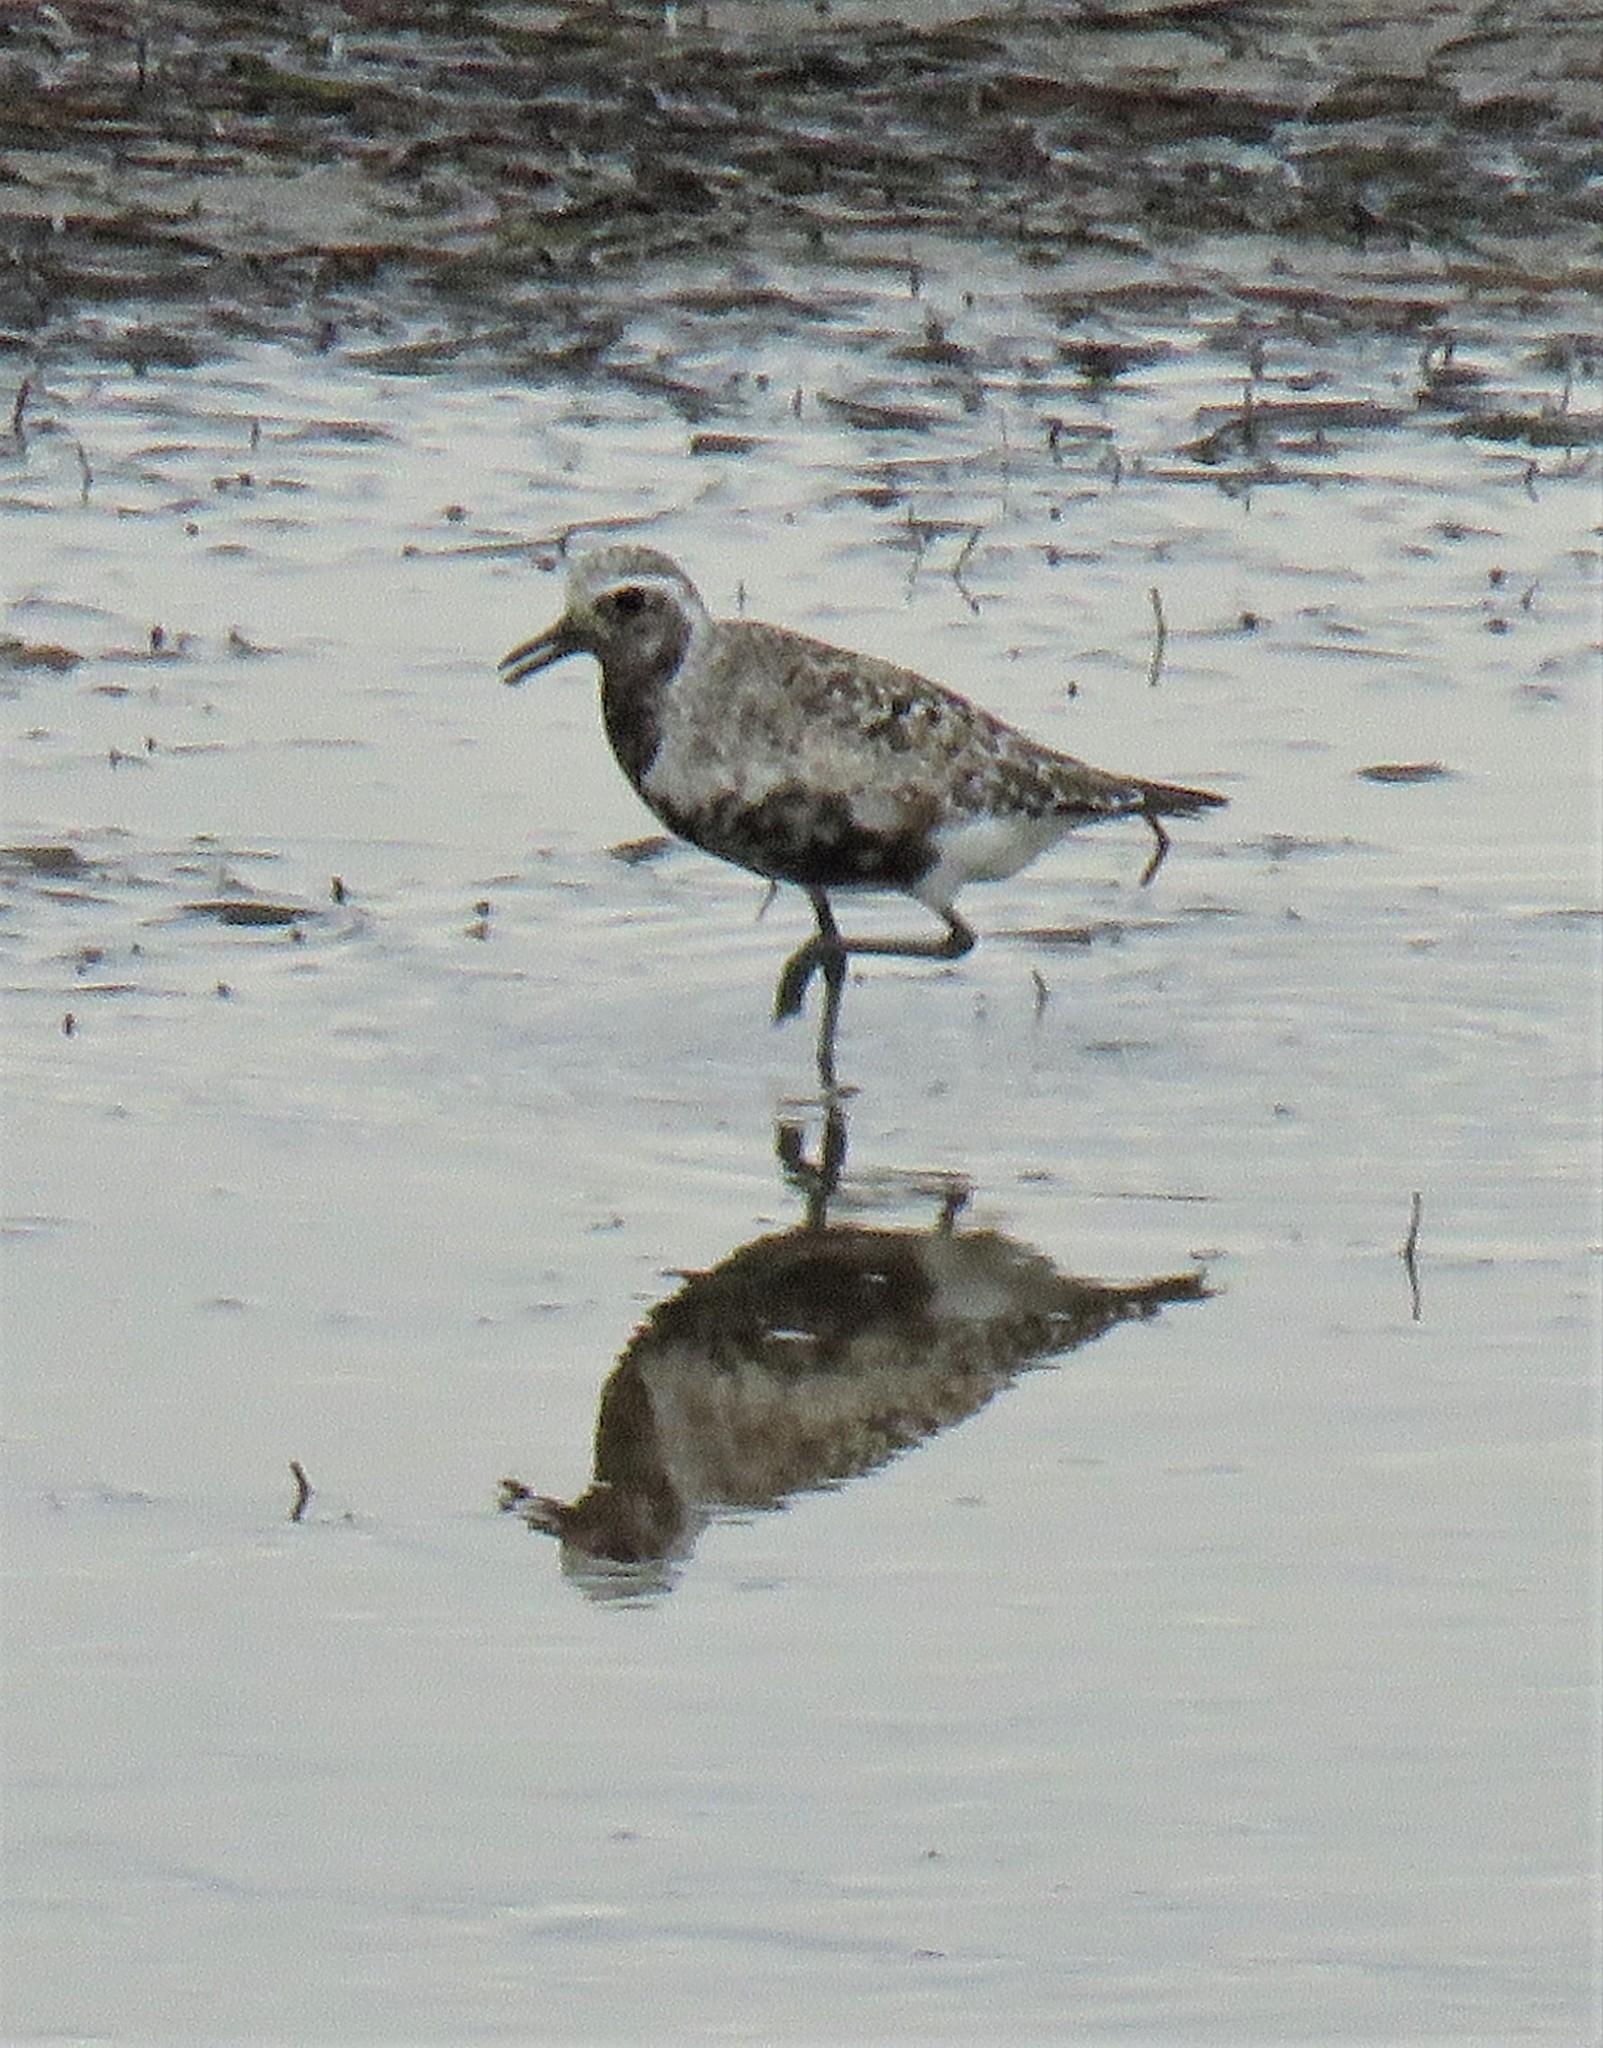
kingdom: Animalia
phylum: Chordata
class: Aves
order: Charadriiformes
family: Charadriidae
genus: Pluvialis
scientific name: Pluvialis squatarola
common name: Grey plover
